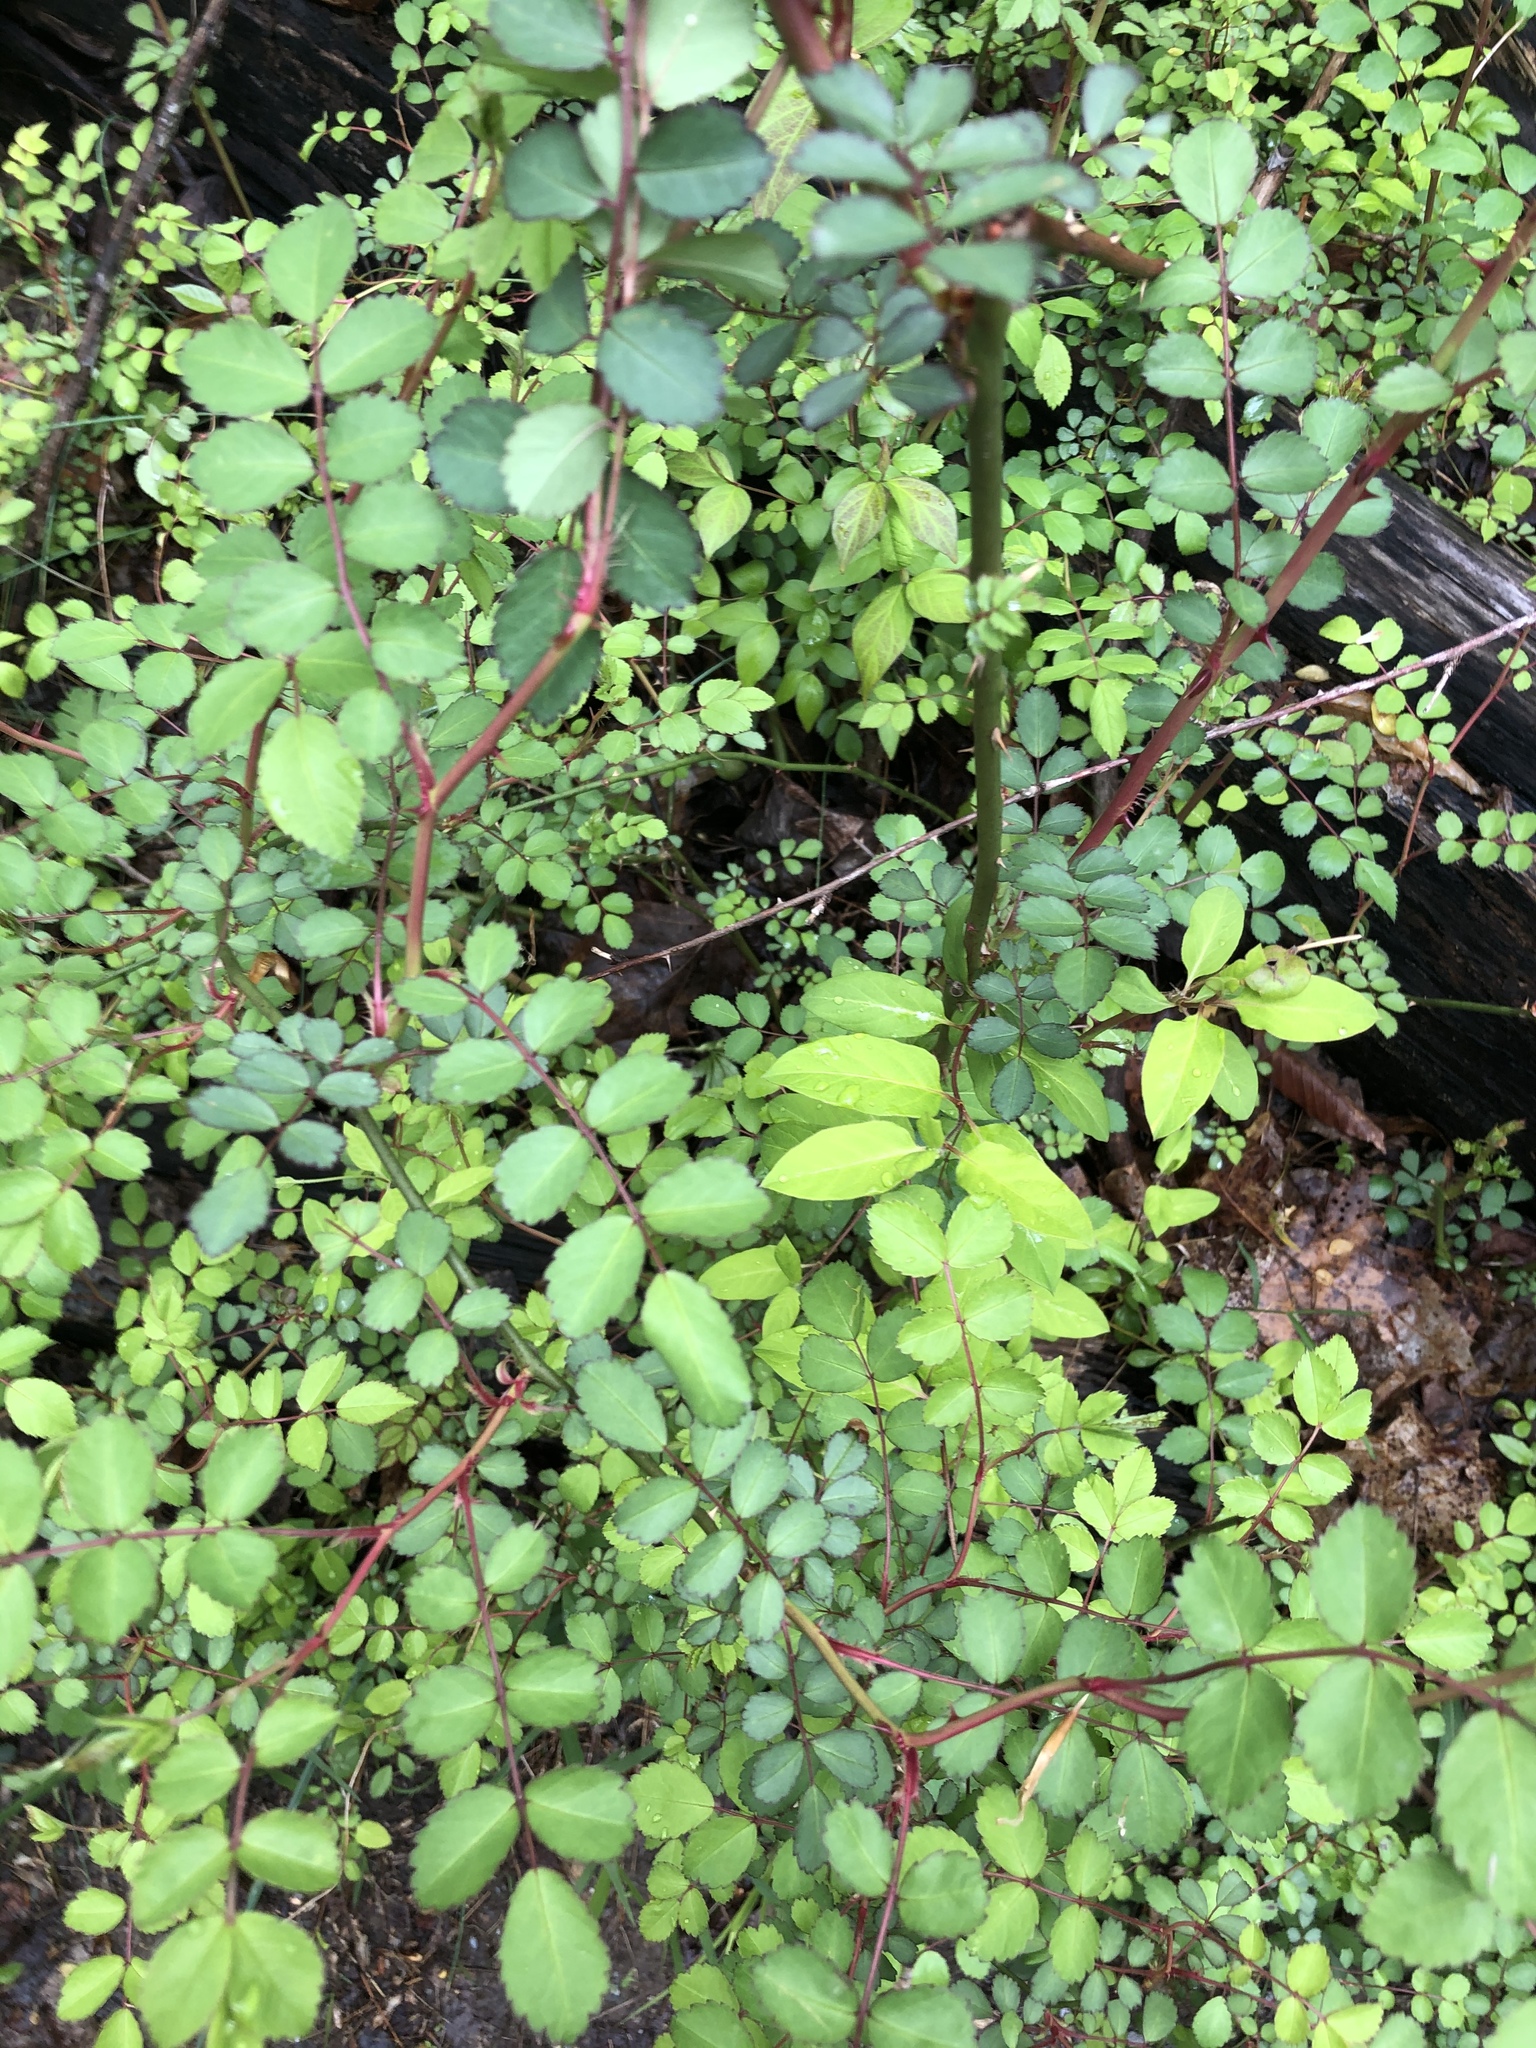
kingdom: Plantae
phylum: Tracheophyta
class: Magnoliopsida
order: Rosales
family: Rosaceae
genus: Rosa
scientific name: Rosa multiflora
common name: Multiflora rose
